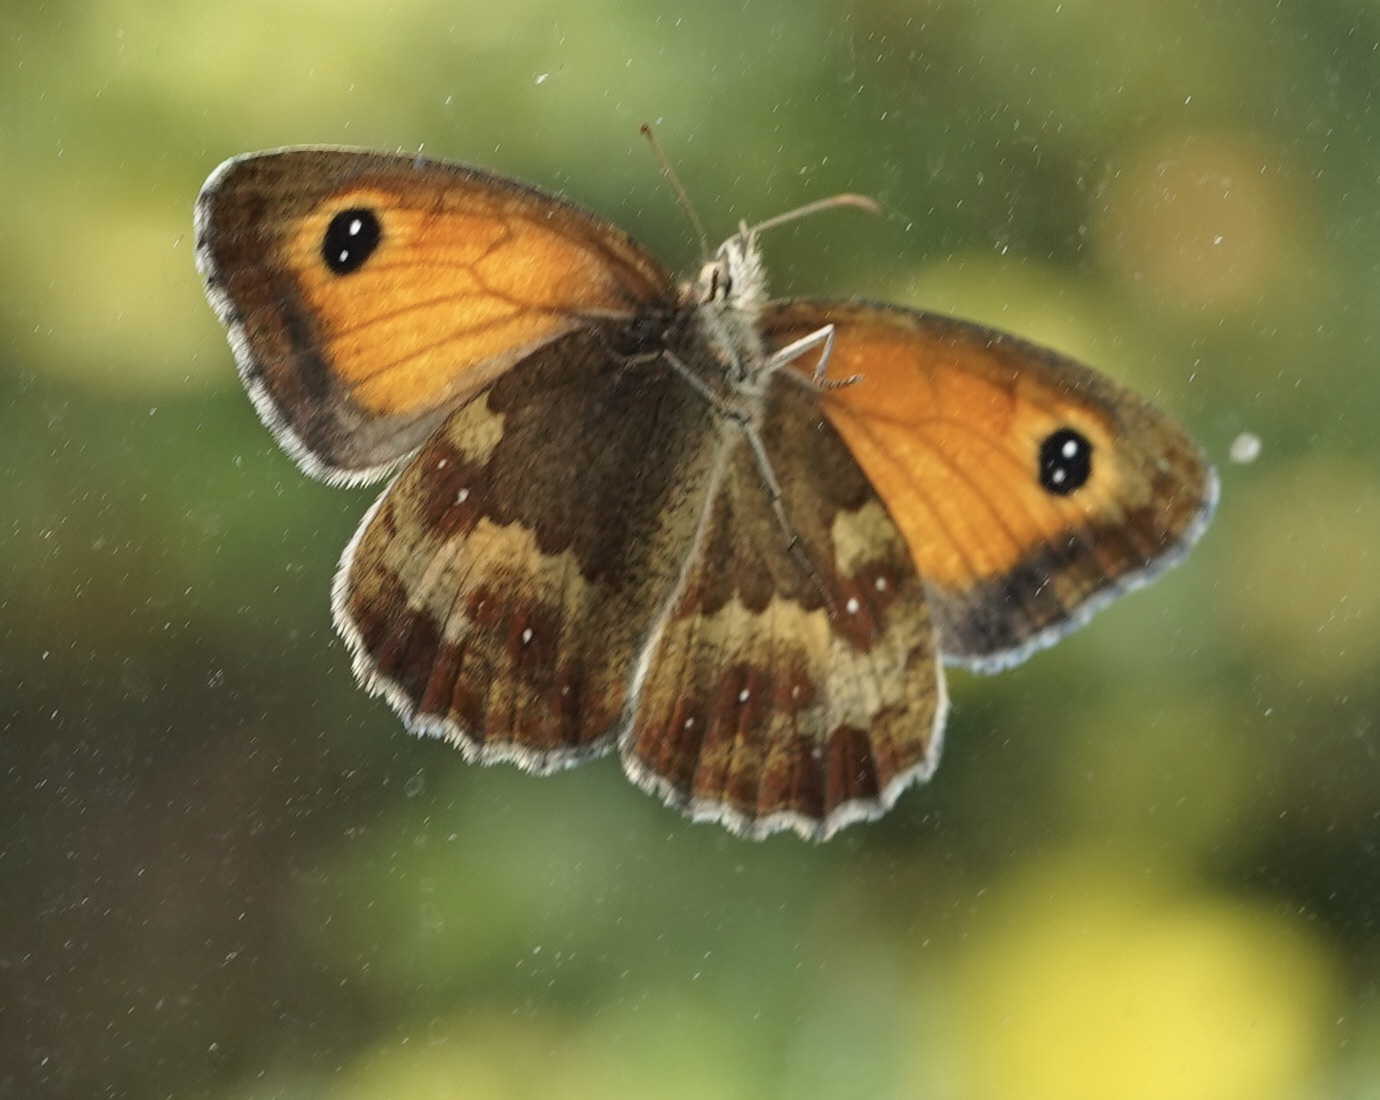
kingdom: Animalia
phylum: Arthropoda
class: Insecta
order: Lepidoptera
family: Nymphalidae
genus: Pyronia
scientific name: Pyronia tithonus
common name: Gatekeeper
